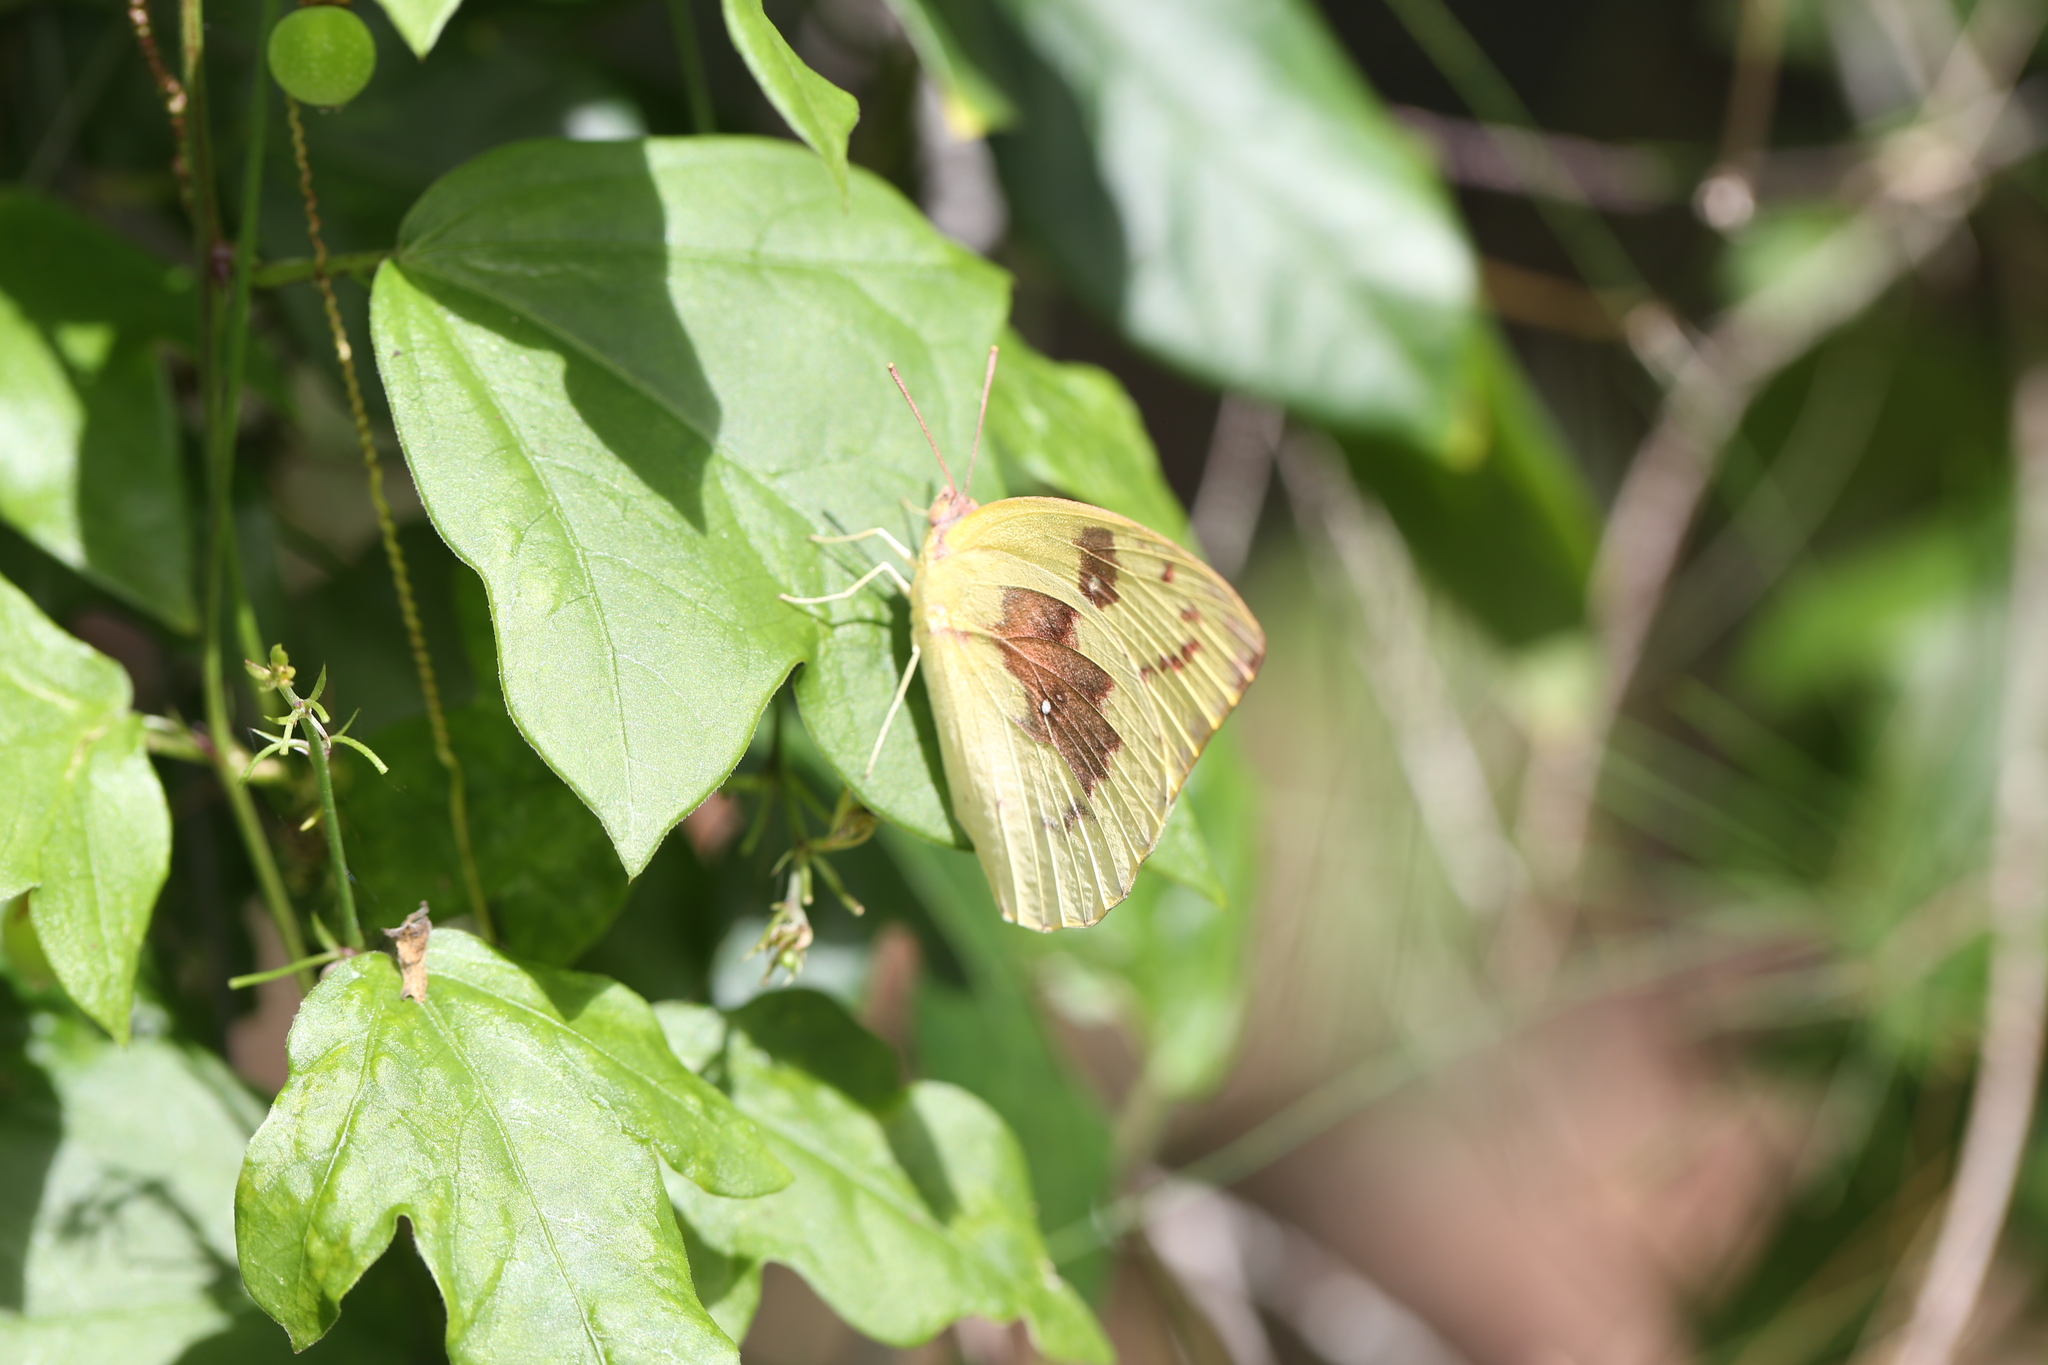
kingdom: Animalia
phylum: Arthropoda
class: Insecta
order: Lepidoptera
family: Pieridae
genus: Catopsilia
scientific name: Catopsilia pomona
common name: Common emigrant
